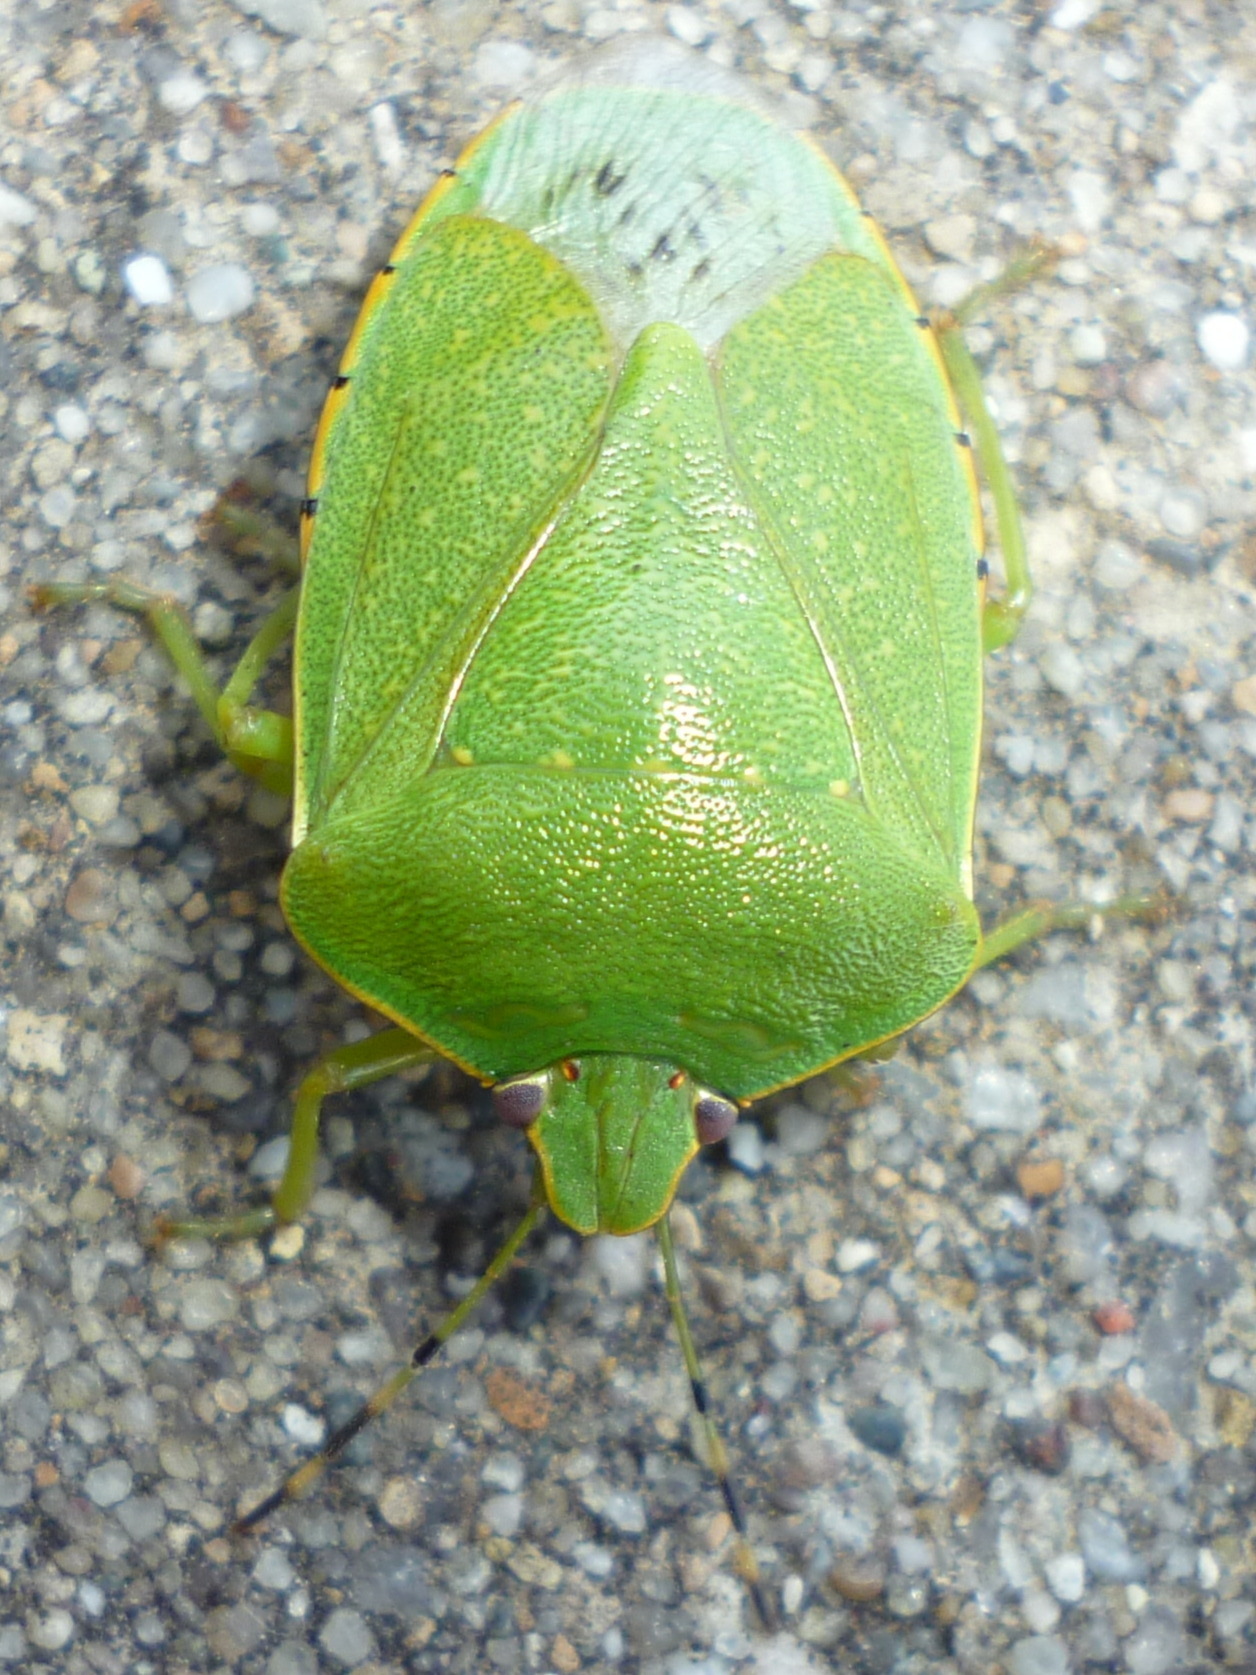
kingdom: Animalia
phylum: Arthropoda
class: Insecta
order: Hemiptera
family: Pentatomidae
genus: Chinavia
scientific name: Chinavia hilaris
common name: Green stink bug
